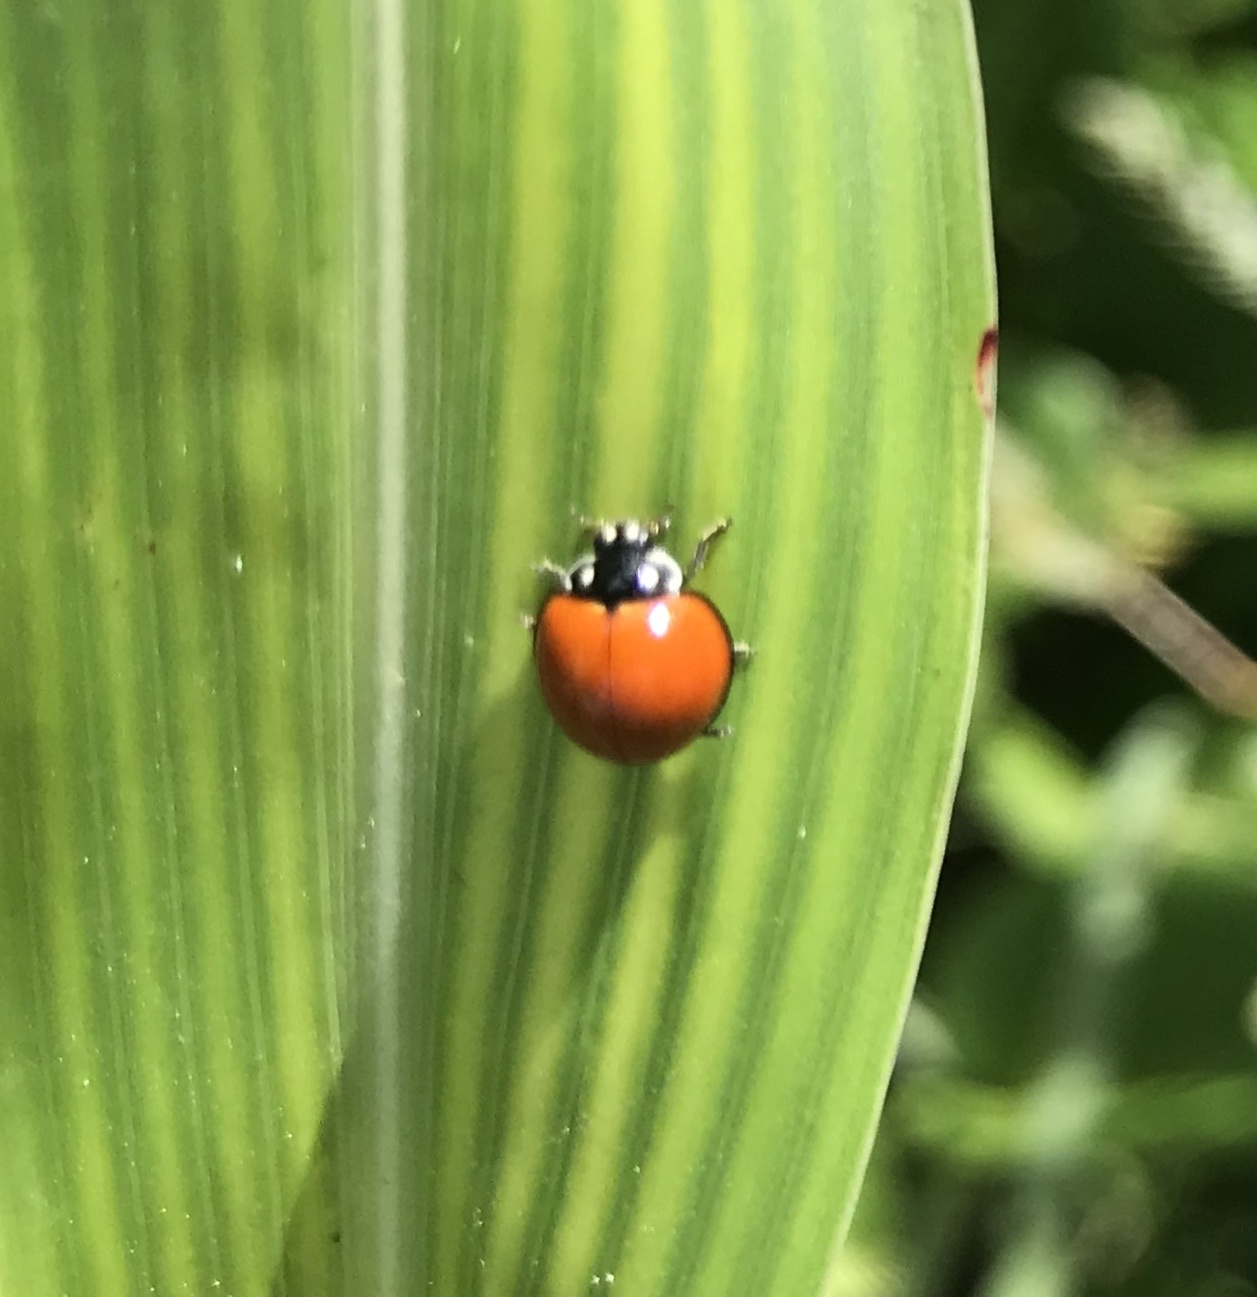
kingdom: Animalia
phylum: Arthropoda
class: Insecta
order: Coleoptera
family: Coccinellidae
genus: Cycloneda
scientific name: Cycloneda sanguinea
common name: Ladybird beetle
